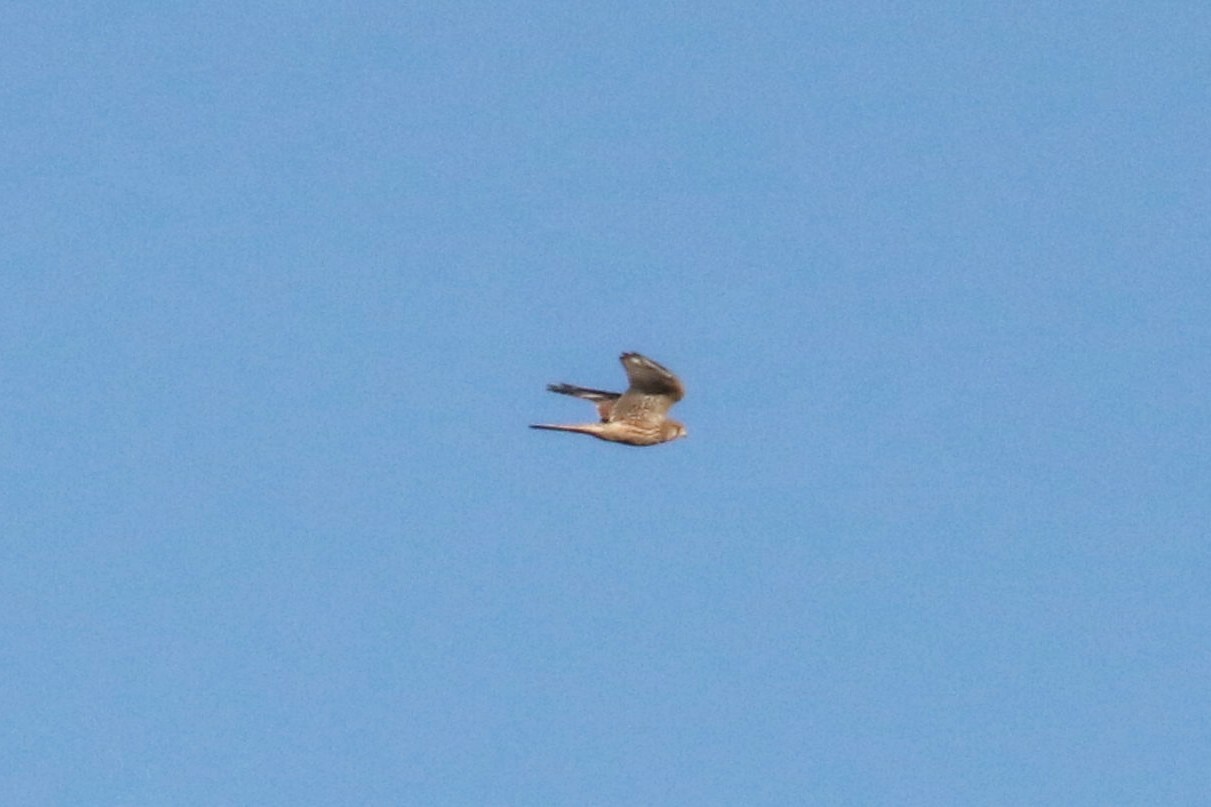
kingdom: Animalia
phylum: Chordata
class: Aves
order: Falconiformes
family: Falconidae
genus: Falco
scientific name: Falco tinnunculus
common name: Common kestrel
